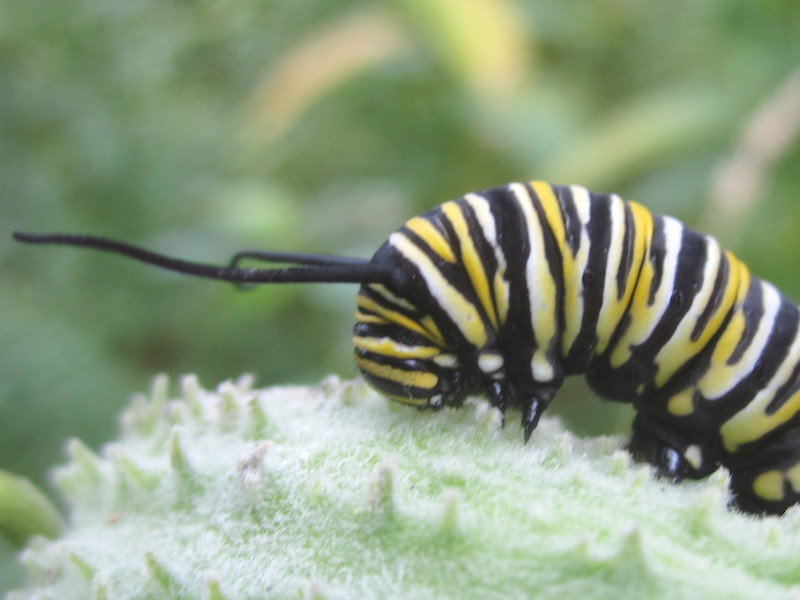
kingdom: Animalia
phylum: Arthropoda
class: Insecta
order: Lepidoptera
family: Nymphalidae
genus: Danaus
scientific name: Danaus plexippus
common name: Monarch
